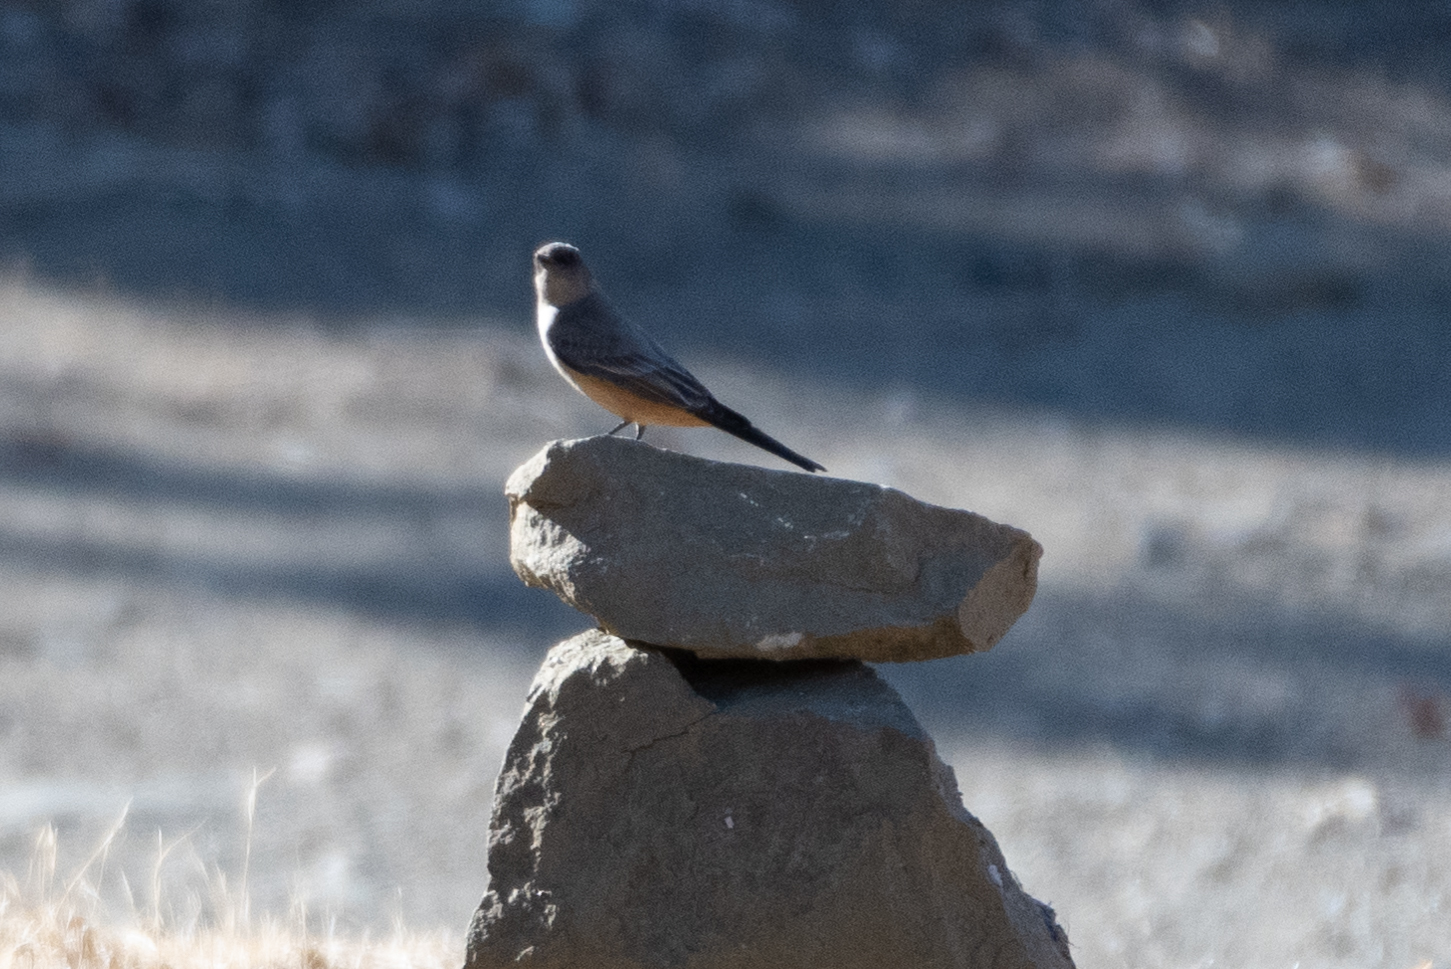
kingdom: Animalia
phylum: Chordata
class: Aves
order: Passeriformes
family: Tyrannidae
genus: Sayornis
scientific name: Sayornis saya
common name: Say's phoebe
